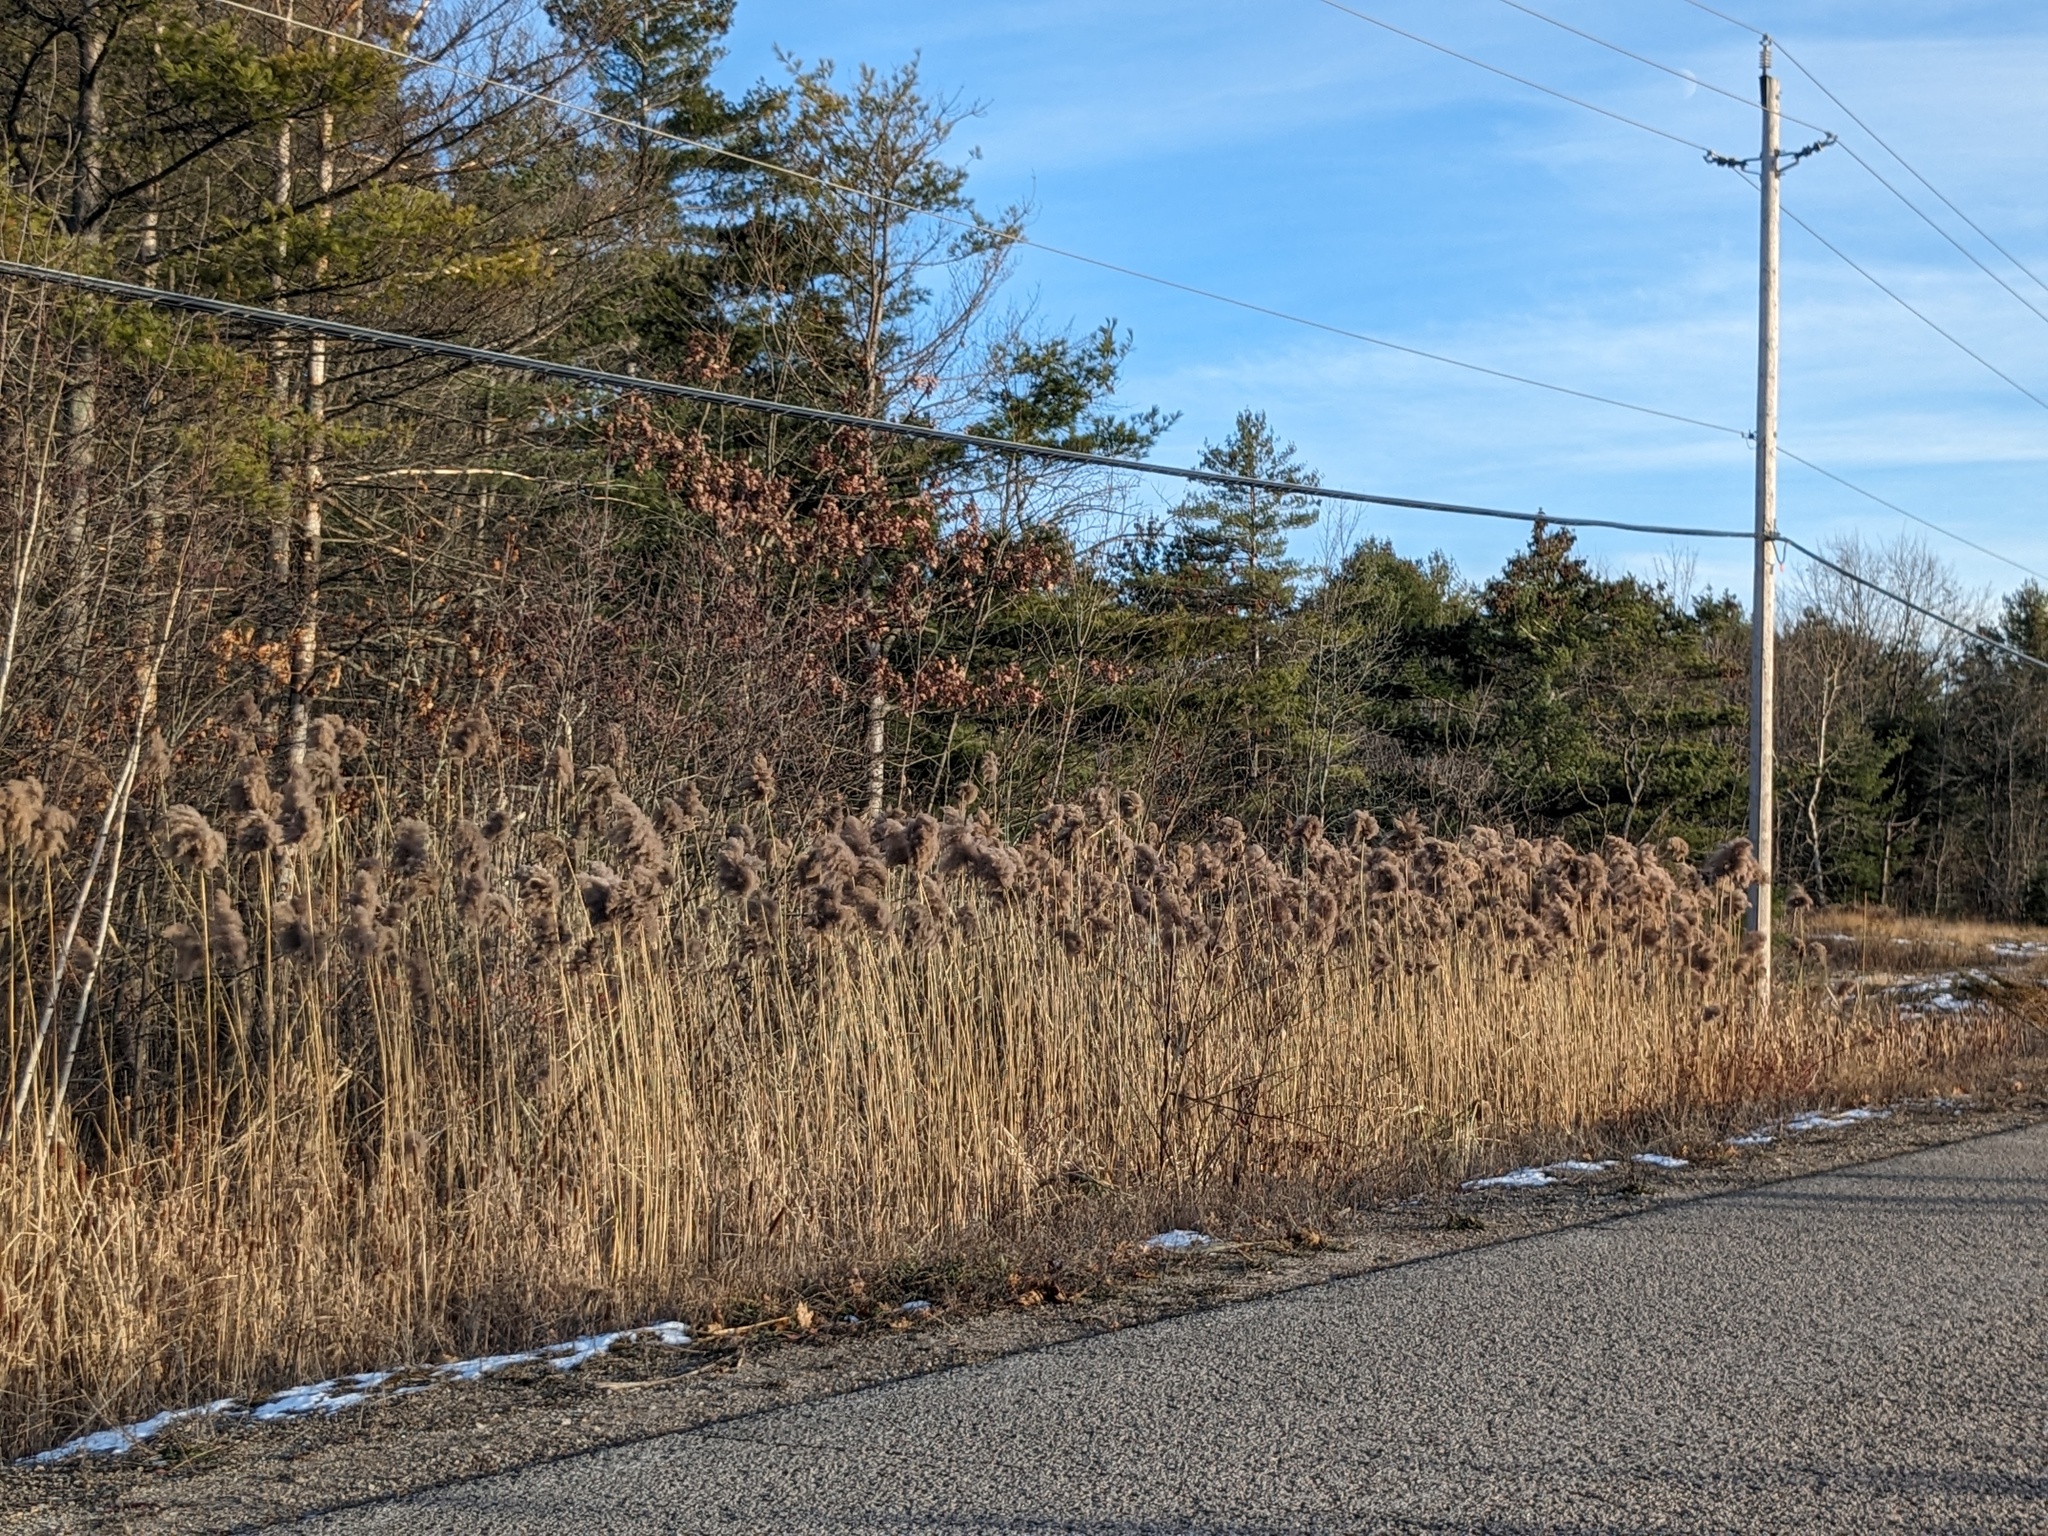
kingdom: Plantae
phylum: Tracheophyta
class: Liliopsida
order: Poales
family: Poaceae
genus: Phragmites
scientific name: Phragmites australis
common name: Common reed
